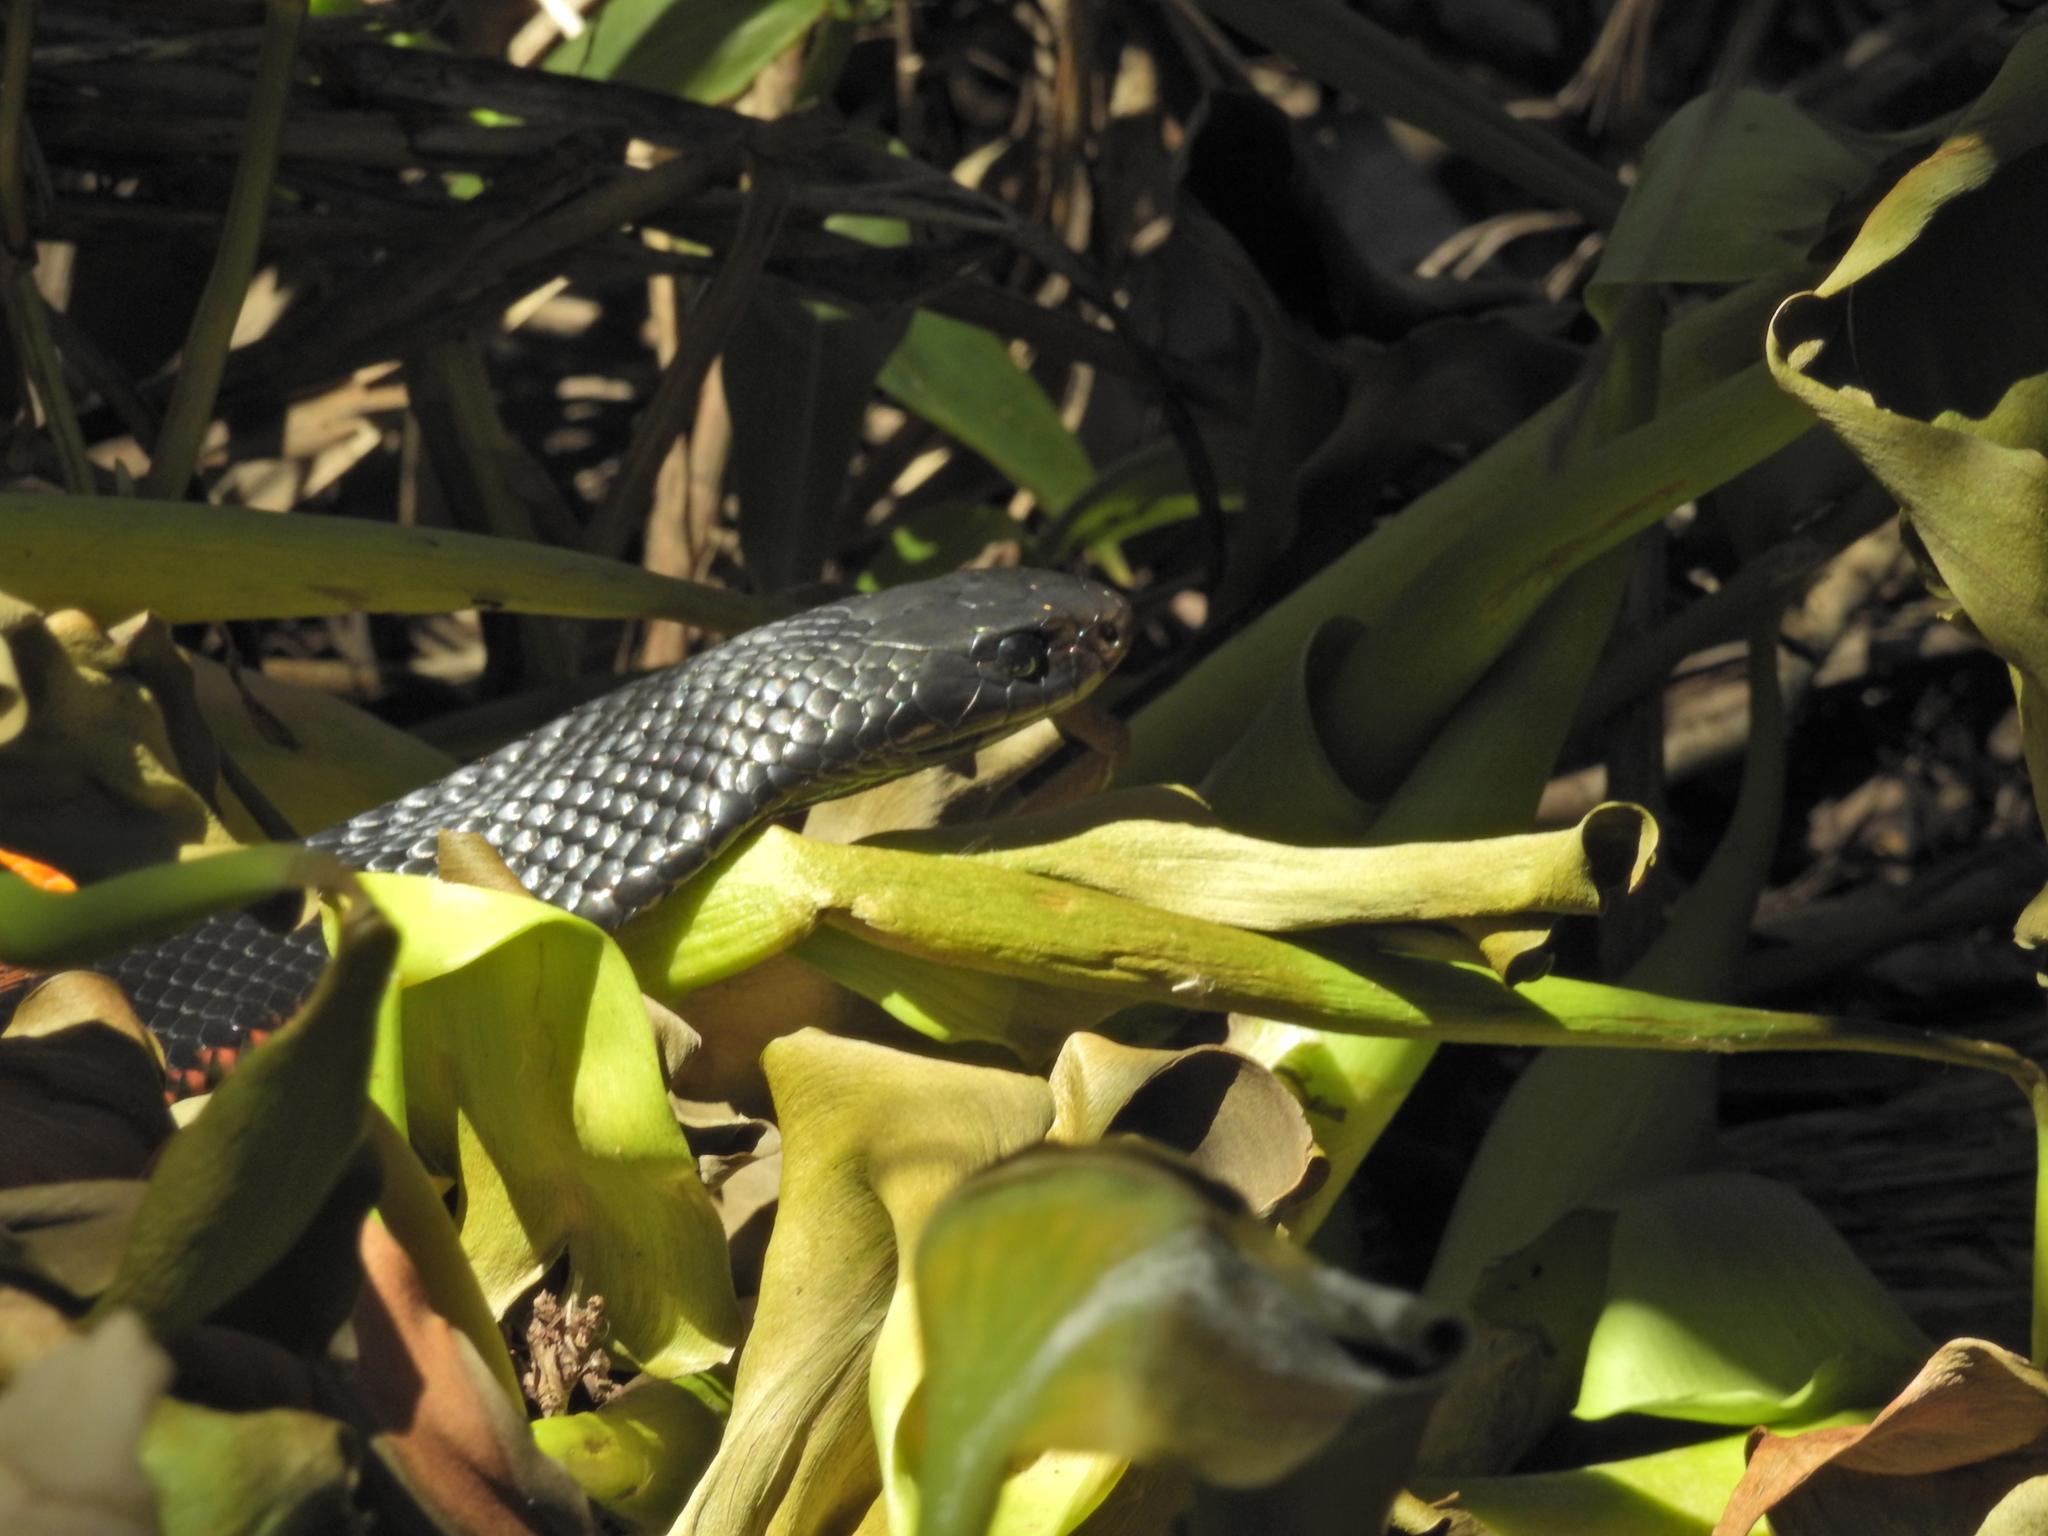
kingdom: Animalia
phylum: Chordata
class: Squamata
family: Elapidae
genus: Pseudechis
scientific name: Pseudechis porphyriacus
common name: Australian black snake
